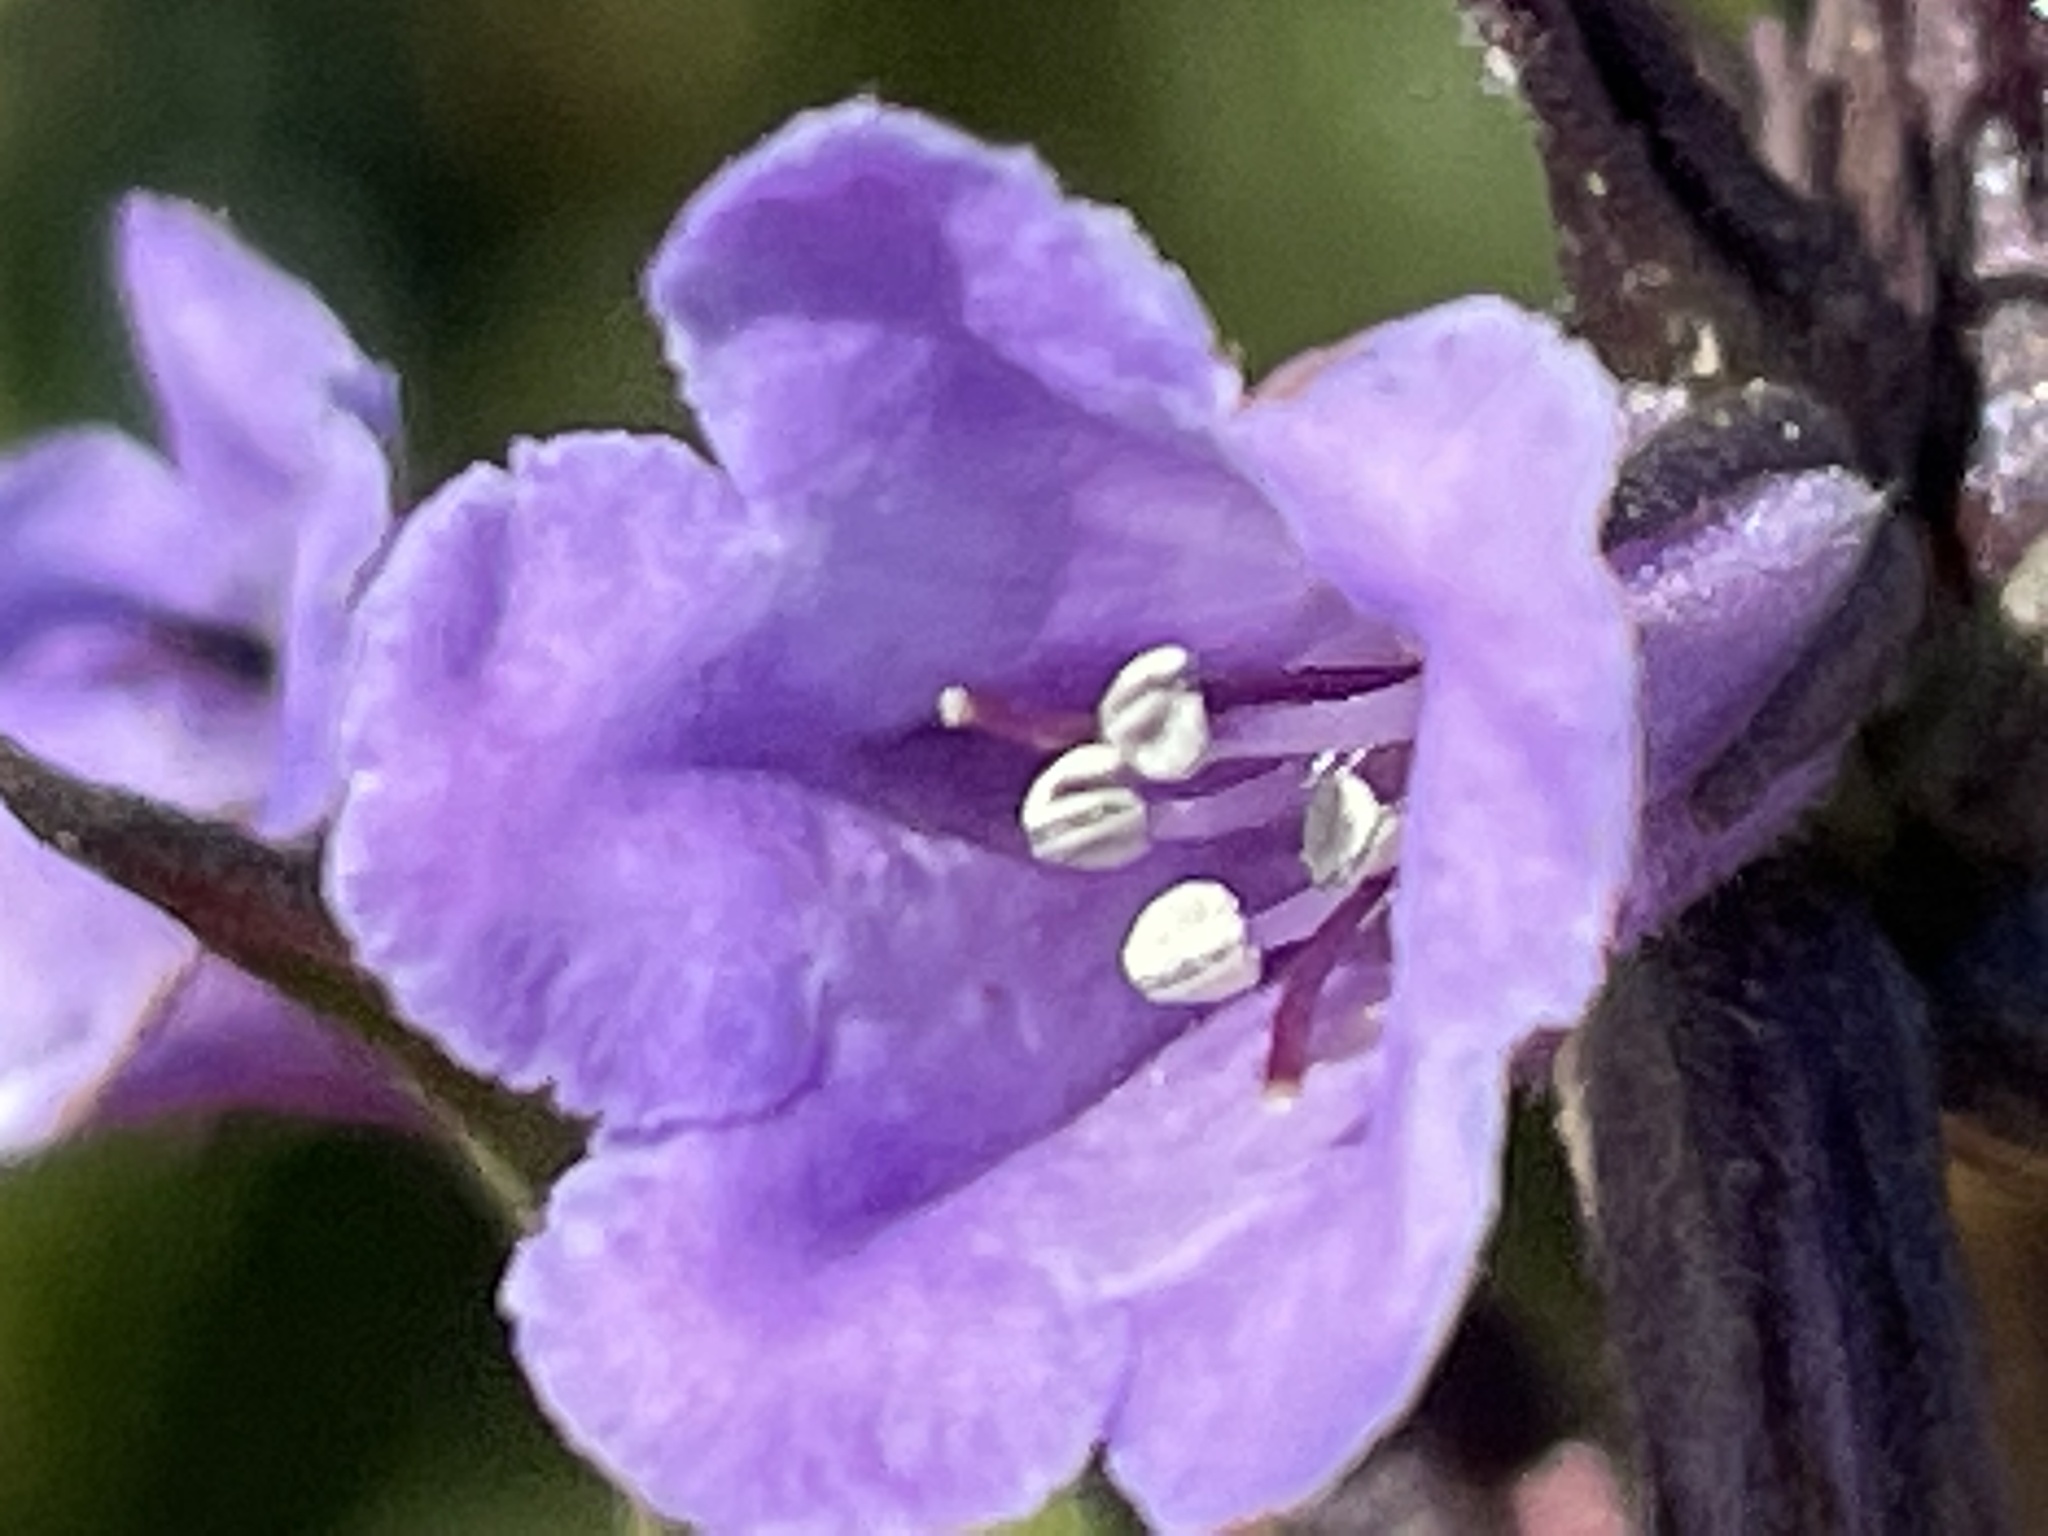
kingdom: Plantae
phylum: Tracheophyta
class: Magnoliopsida
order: Boraginales
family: Namaceae
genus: Eriodictyon
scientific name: Eriodictyon californicum
